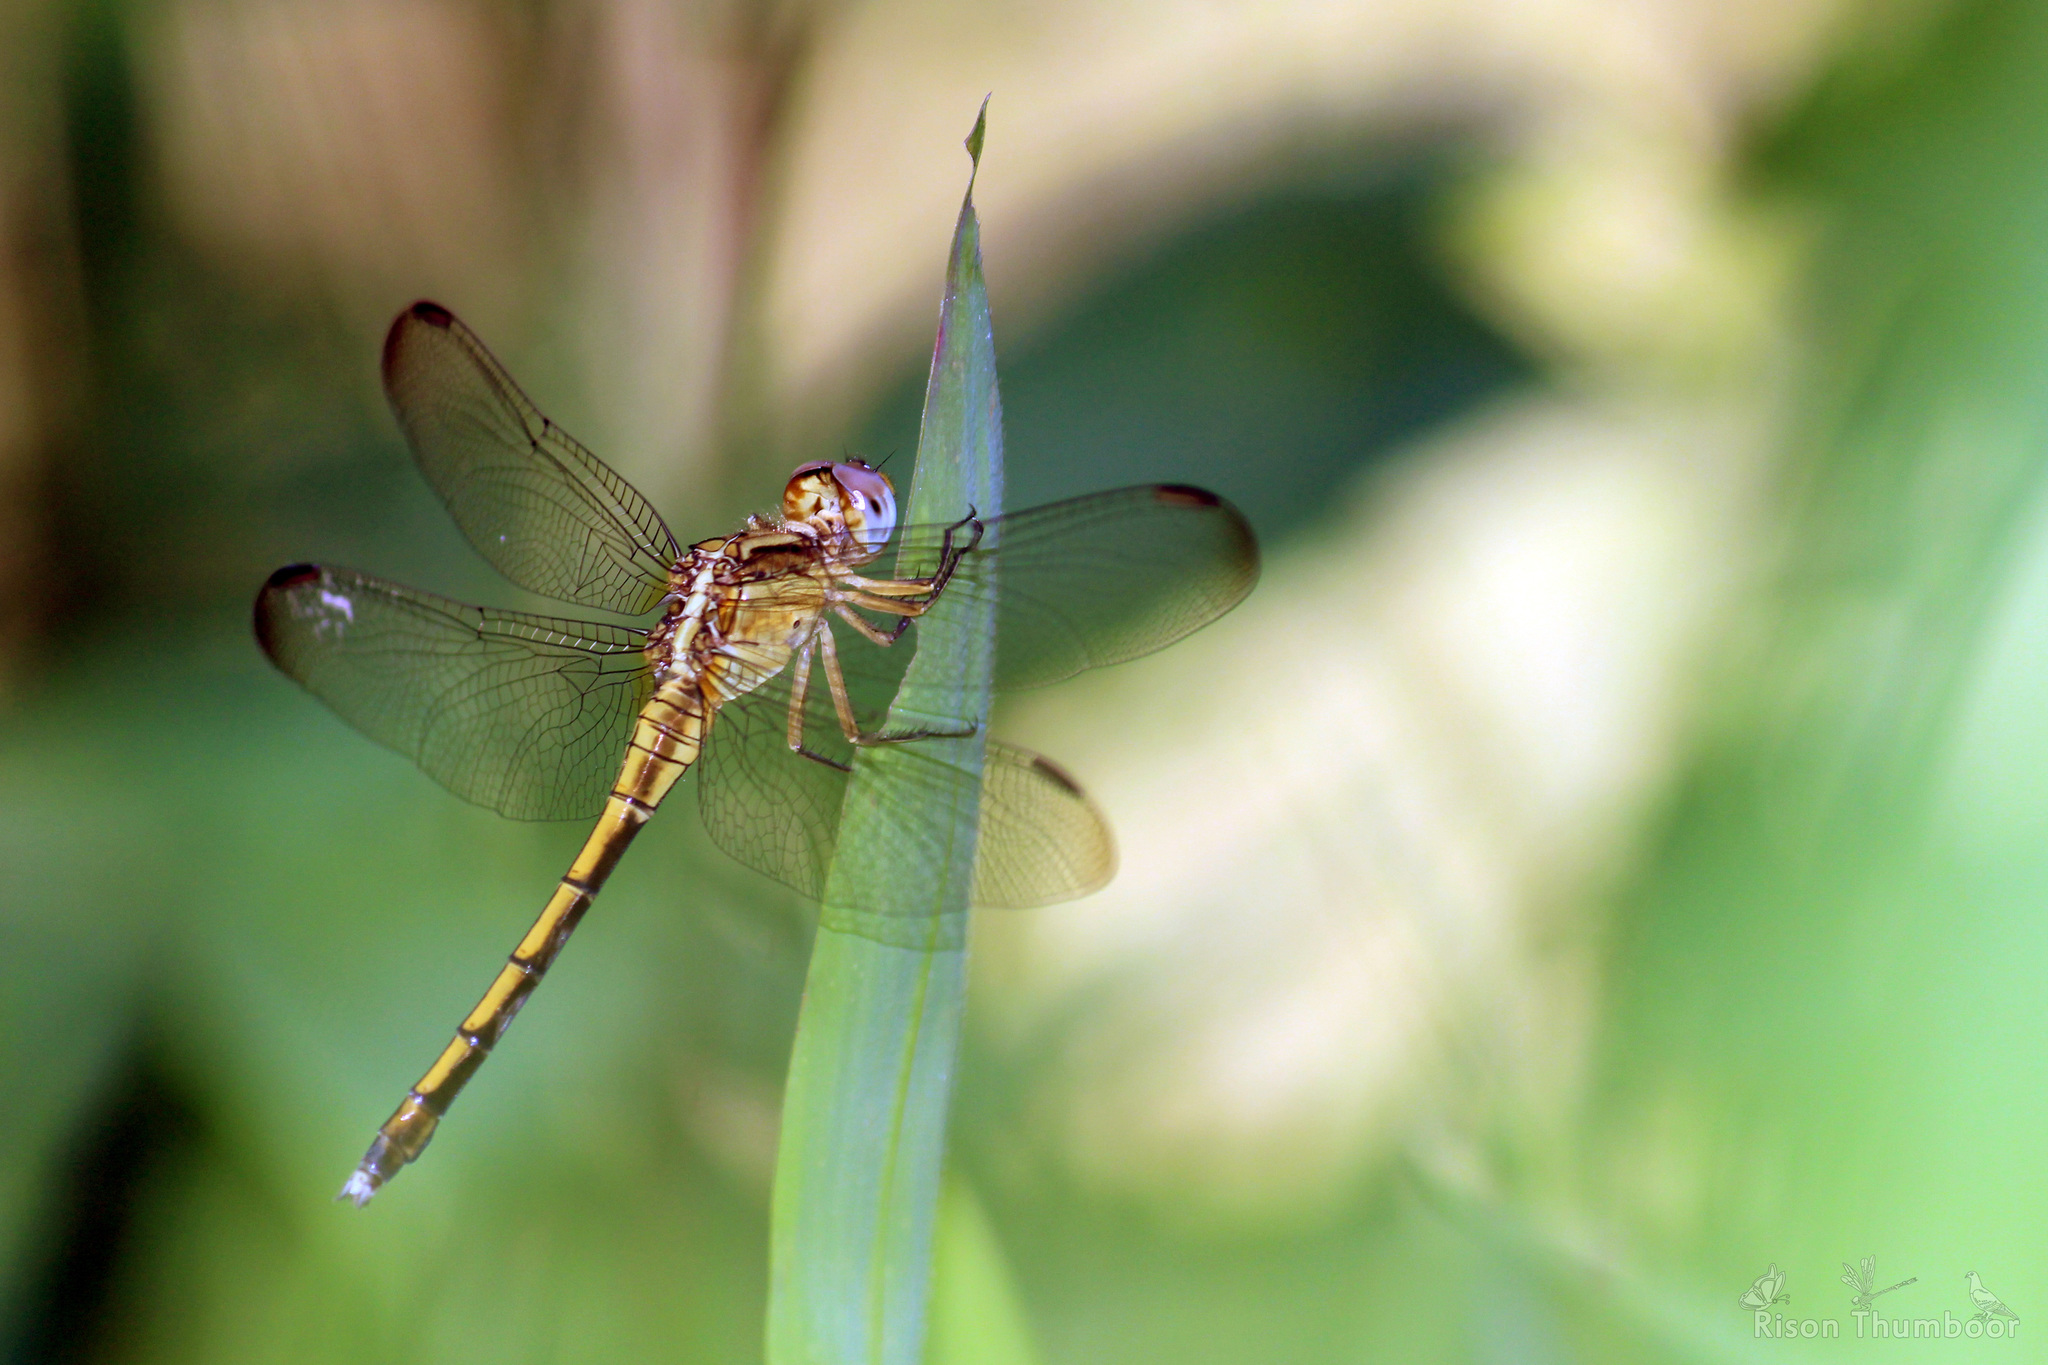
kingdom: Animalia
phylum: Arthropoda
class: Insecta
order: Odonata
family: Libellulidae
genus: Orthetrum
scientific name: Orthetrum luzonicum
